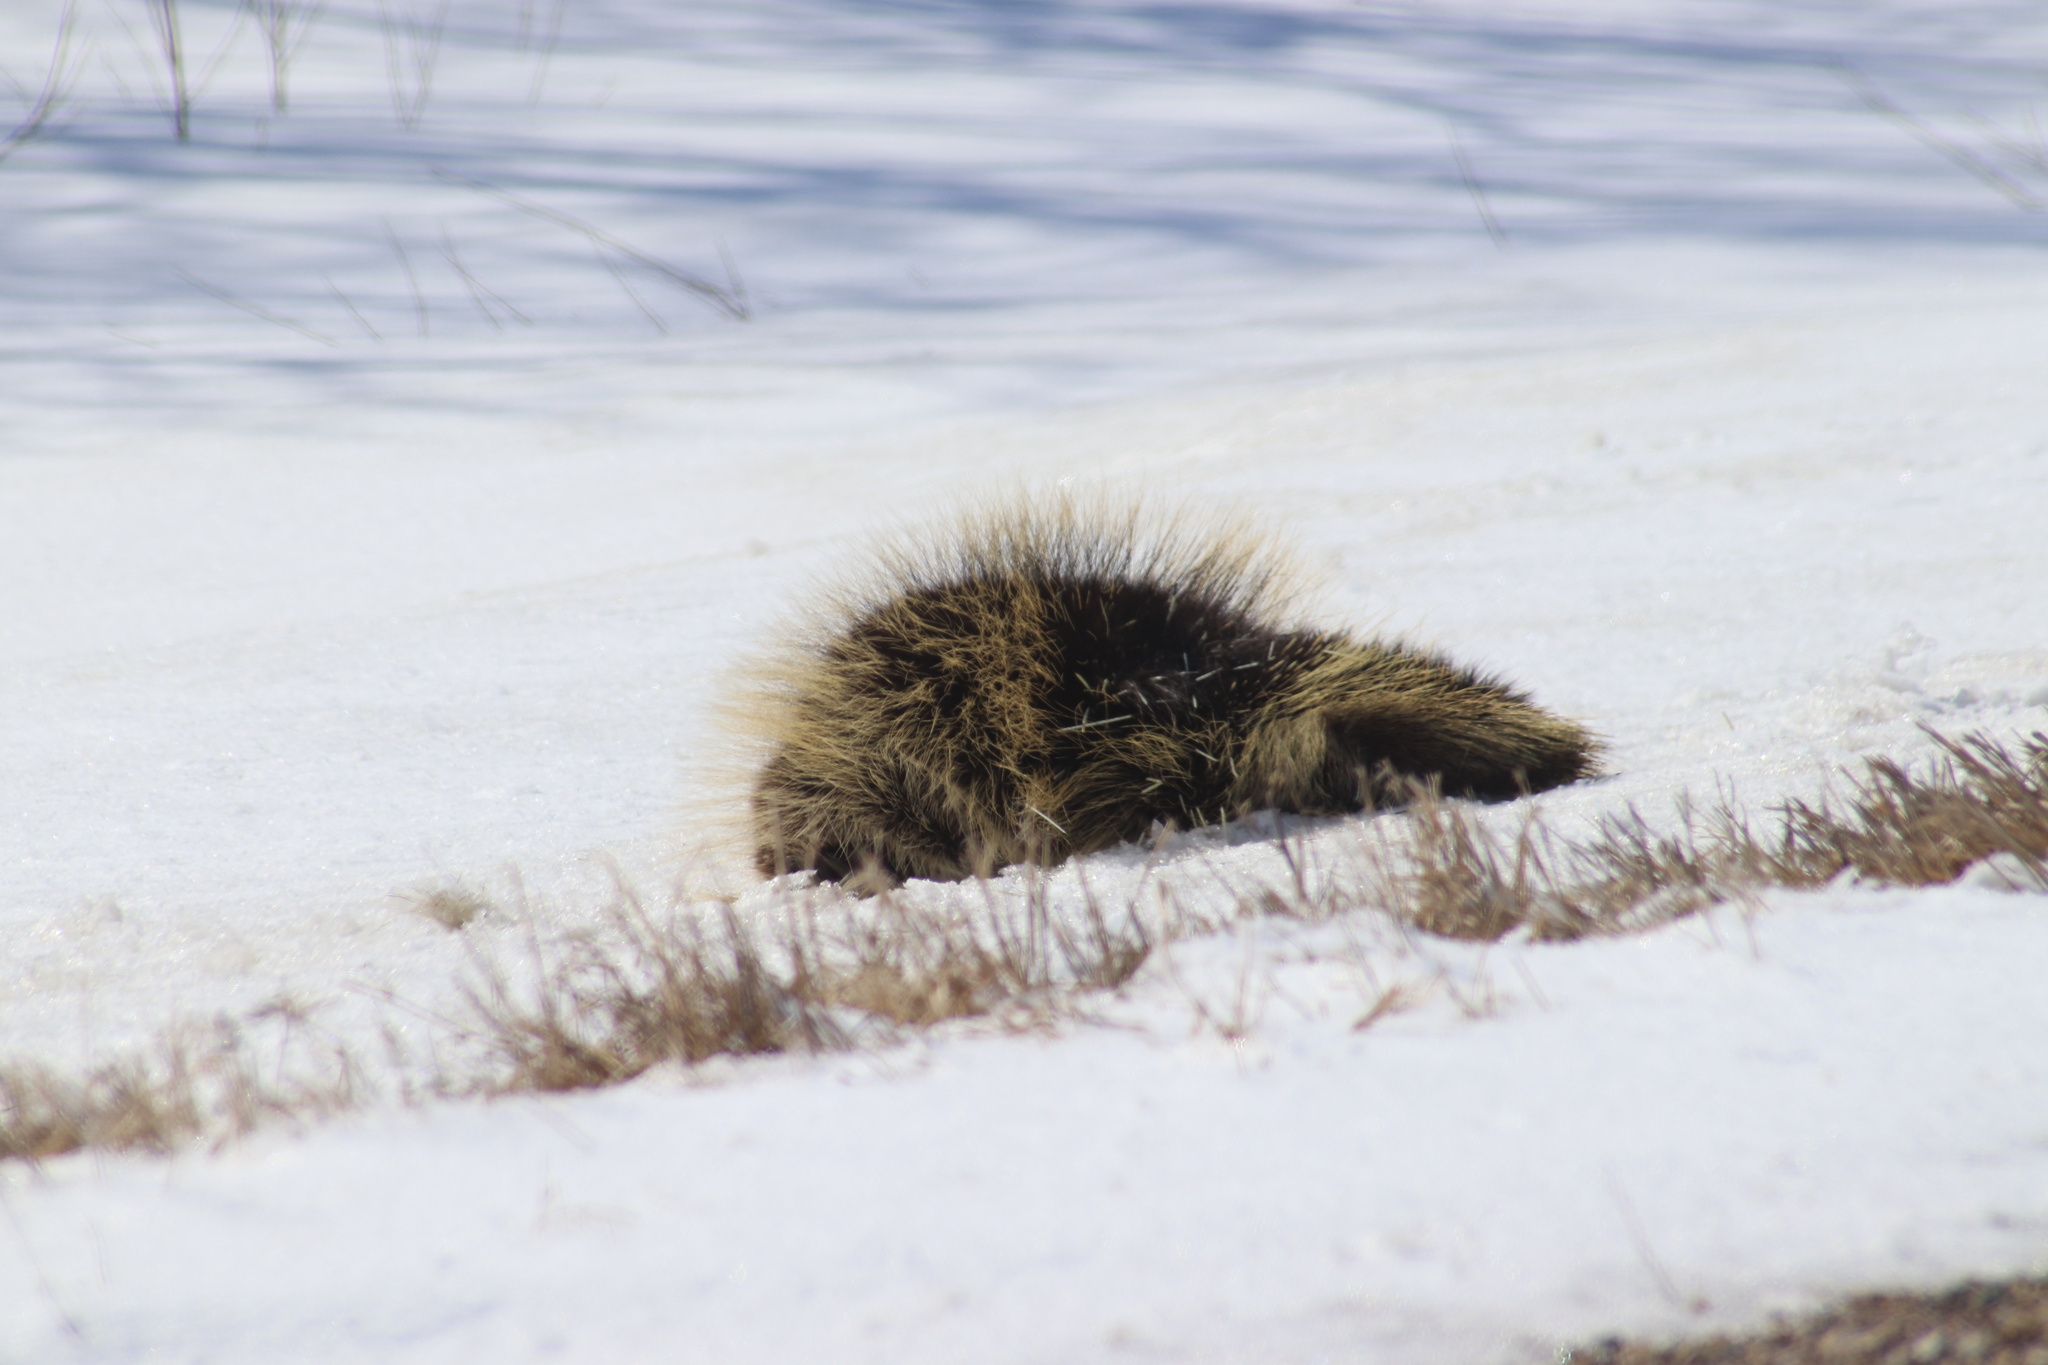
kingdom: Animalia
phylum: Chordata
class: Mammalia
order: Rodentia
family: Erethizontidae
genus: Erethizon
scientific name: Erethizon dorsatus
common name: North american porcupine
